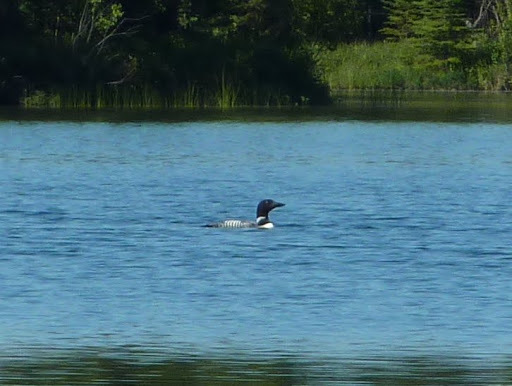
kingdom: Animalia
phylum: Chordata
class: Aves
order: Gaviiformes
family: Gaviidae
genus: Gavia
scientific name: Gavia immer
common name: Common loon
